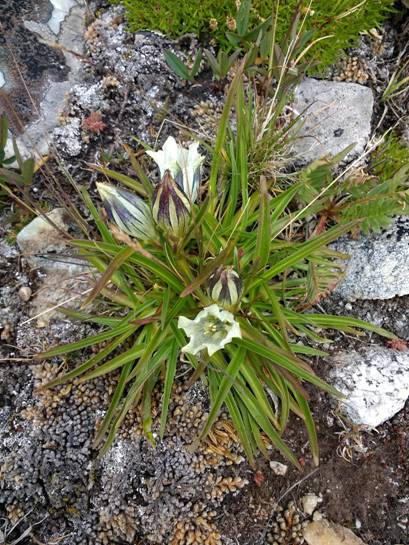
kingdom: Plantae
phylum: Tracheophyta
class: Magnoliopsida
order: Gentianales
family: Gentianaceae
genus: Gentiana
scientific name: Gentiana algida
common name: Arctic gentian
